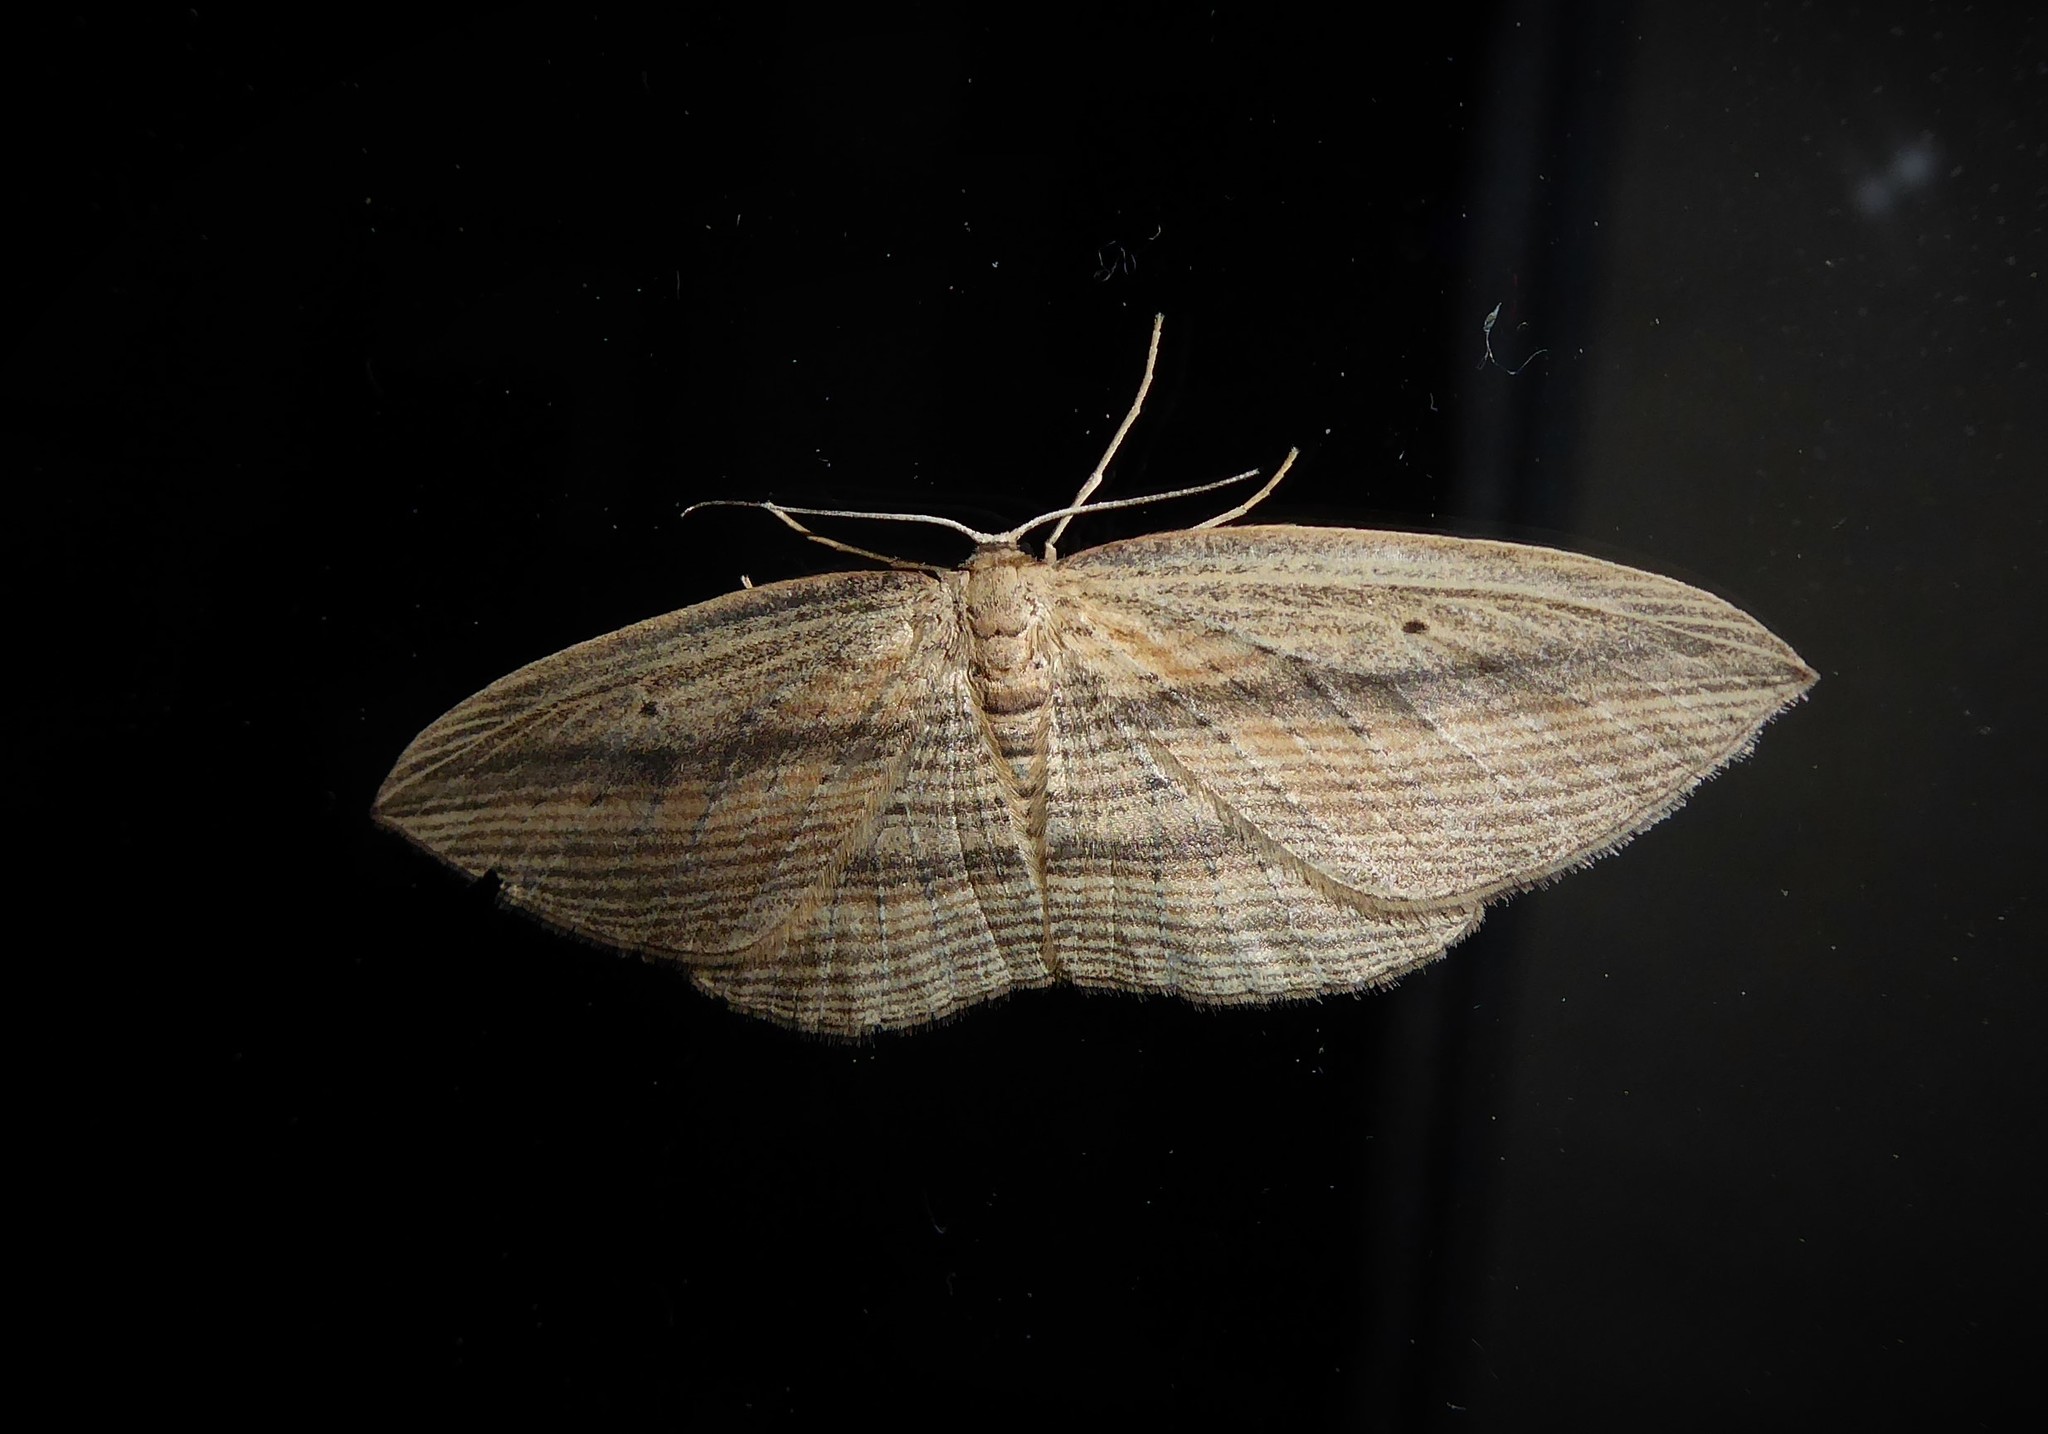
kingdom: Animalia
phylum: Arthropoda
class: Insecta
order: Lepidoptera
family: Geometridae
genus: Epiphryne
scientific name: Epiphryne verriculata
